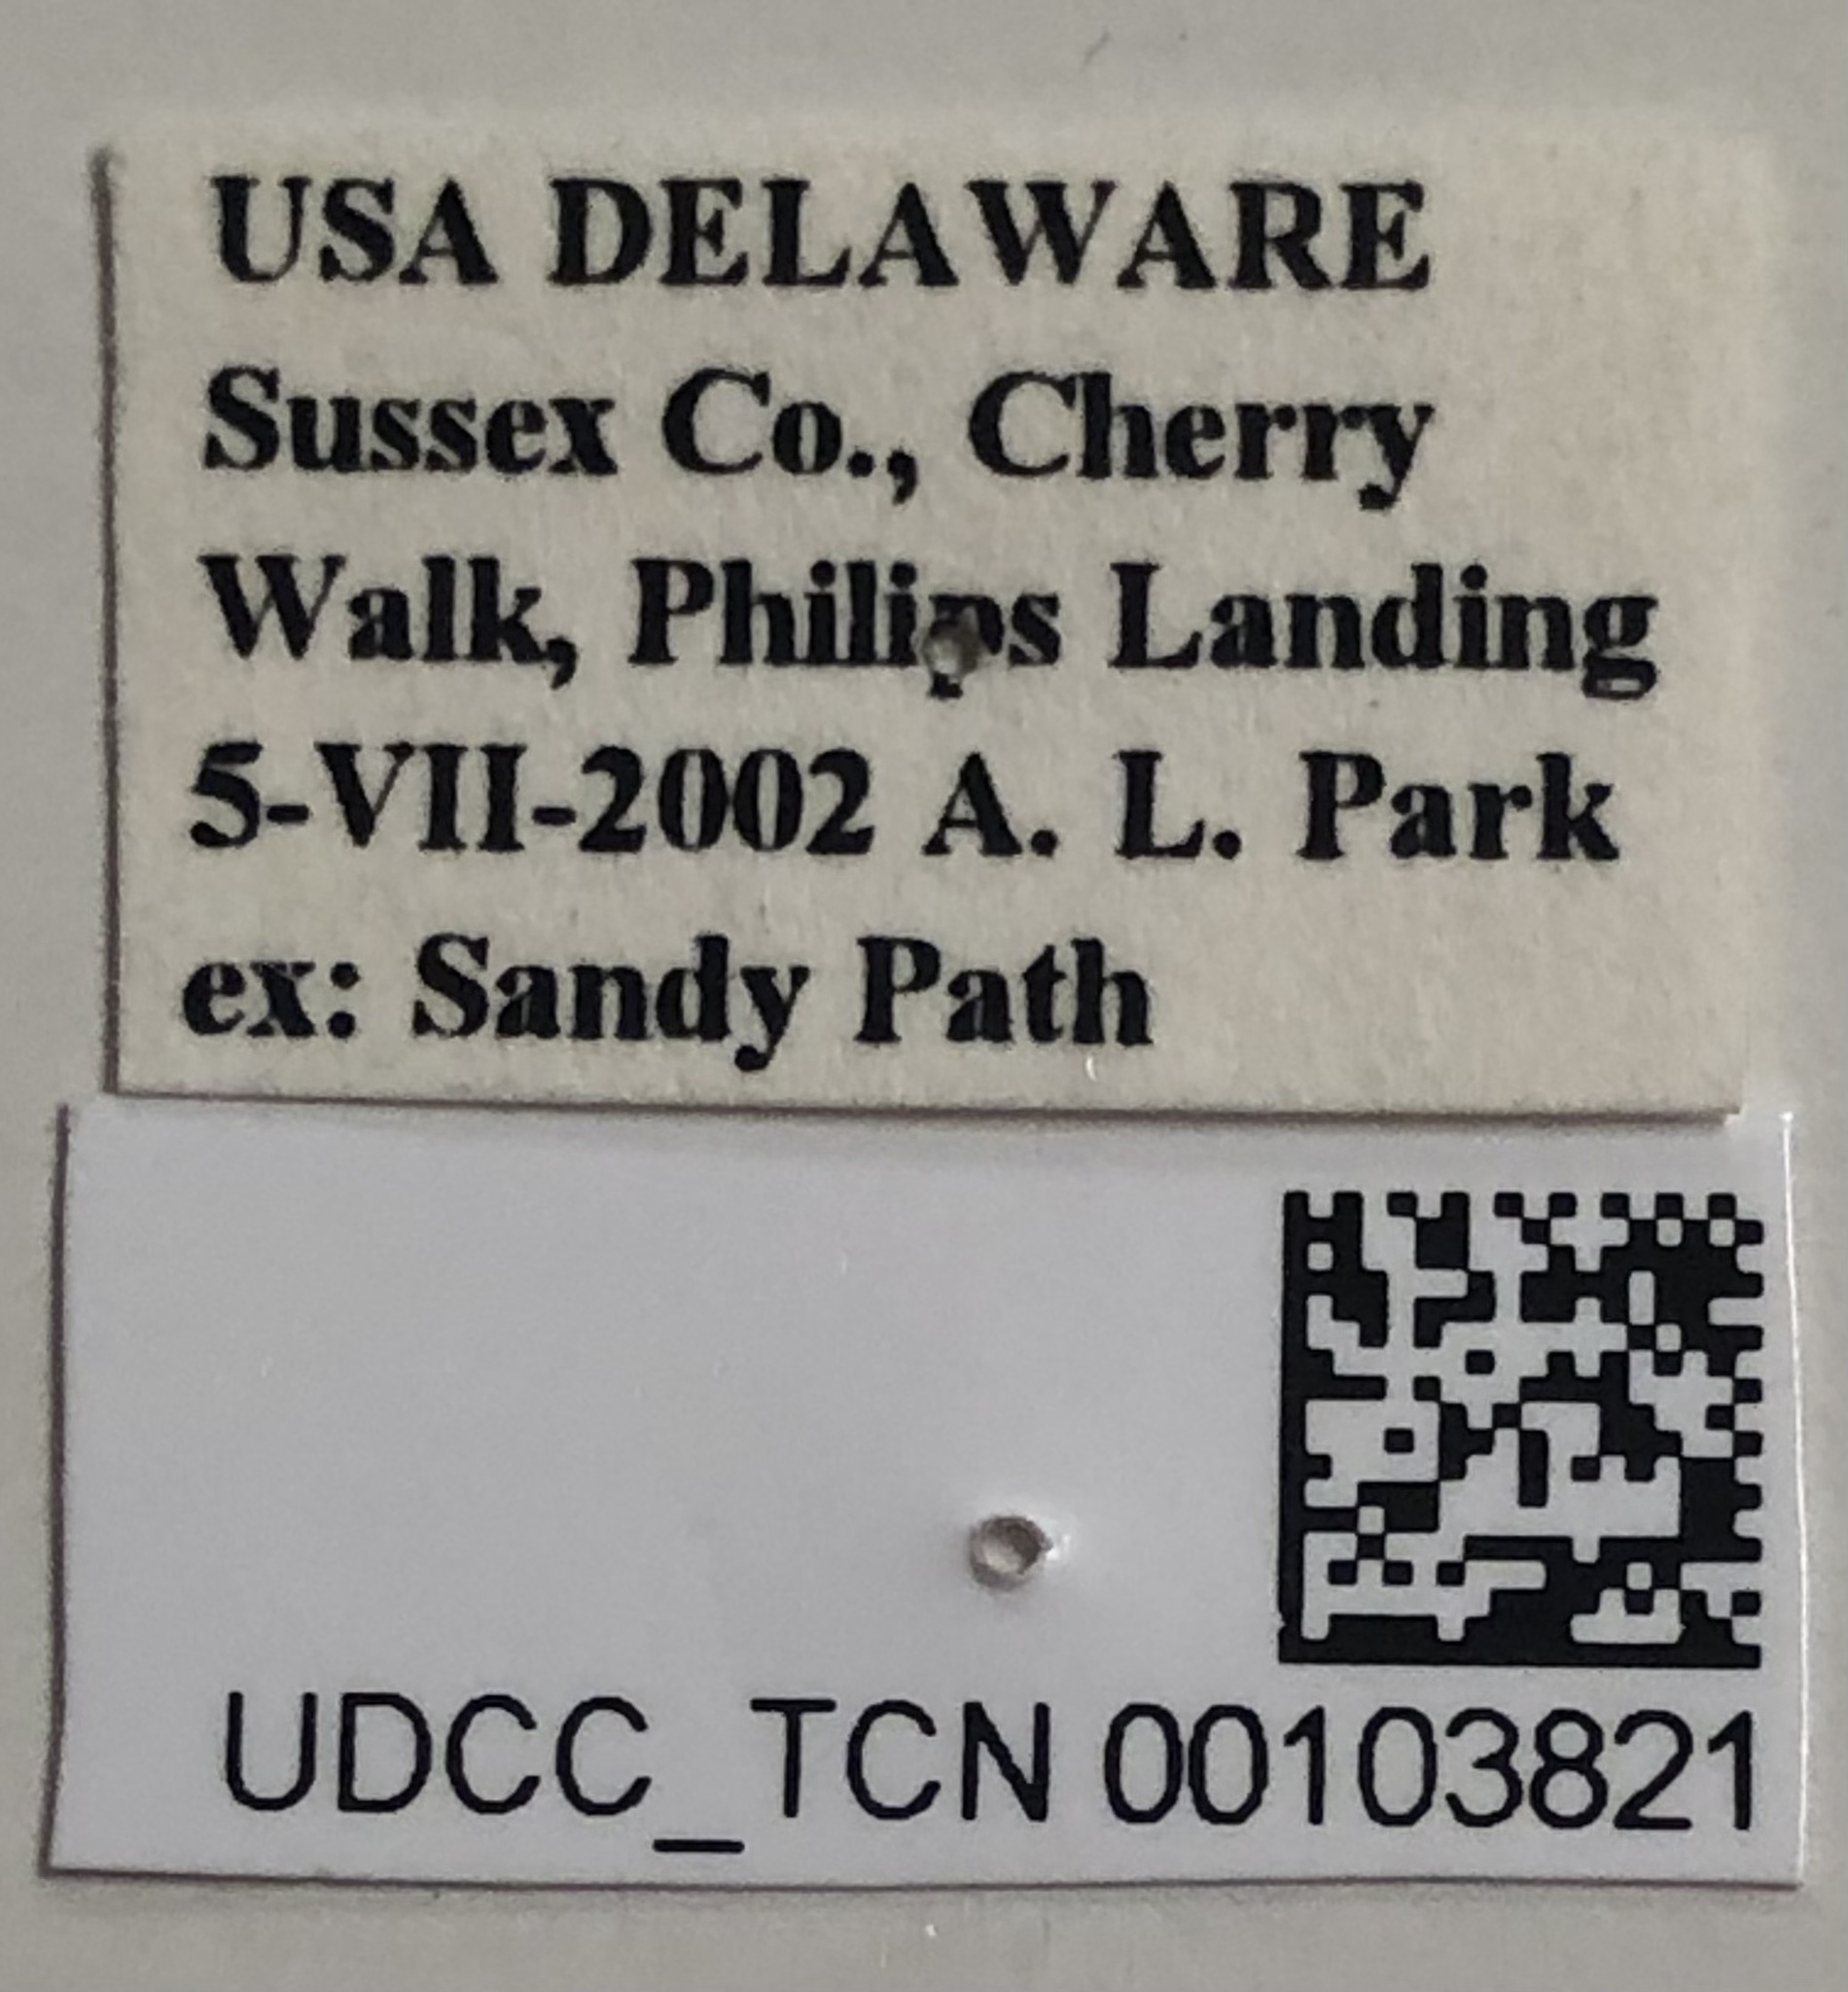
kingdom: Animalia
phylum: Arthropoda
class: Insecta
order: Coleoptera
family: Carabidae
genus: Cylindera
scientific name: Cylindera unipunctata
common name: One-spotted tiger beetle
